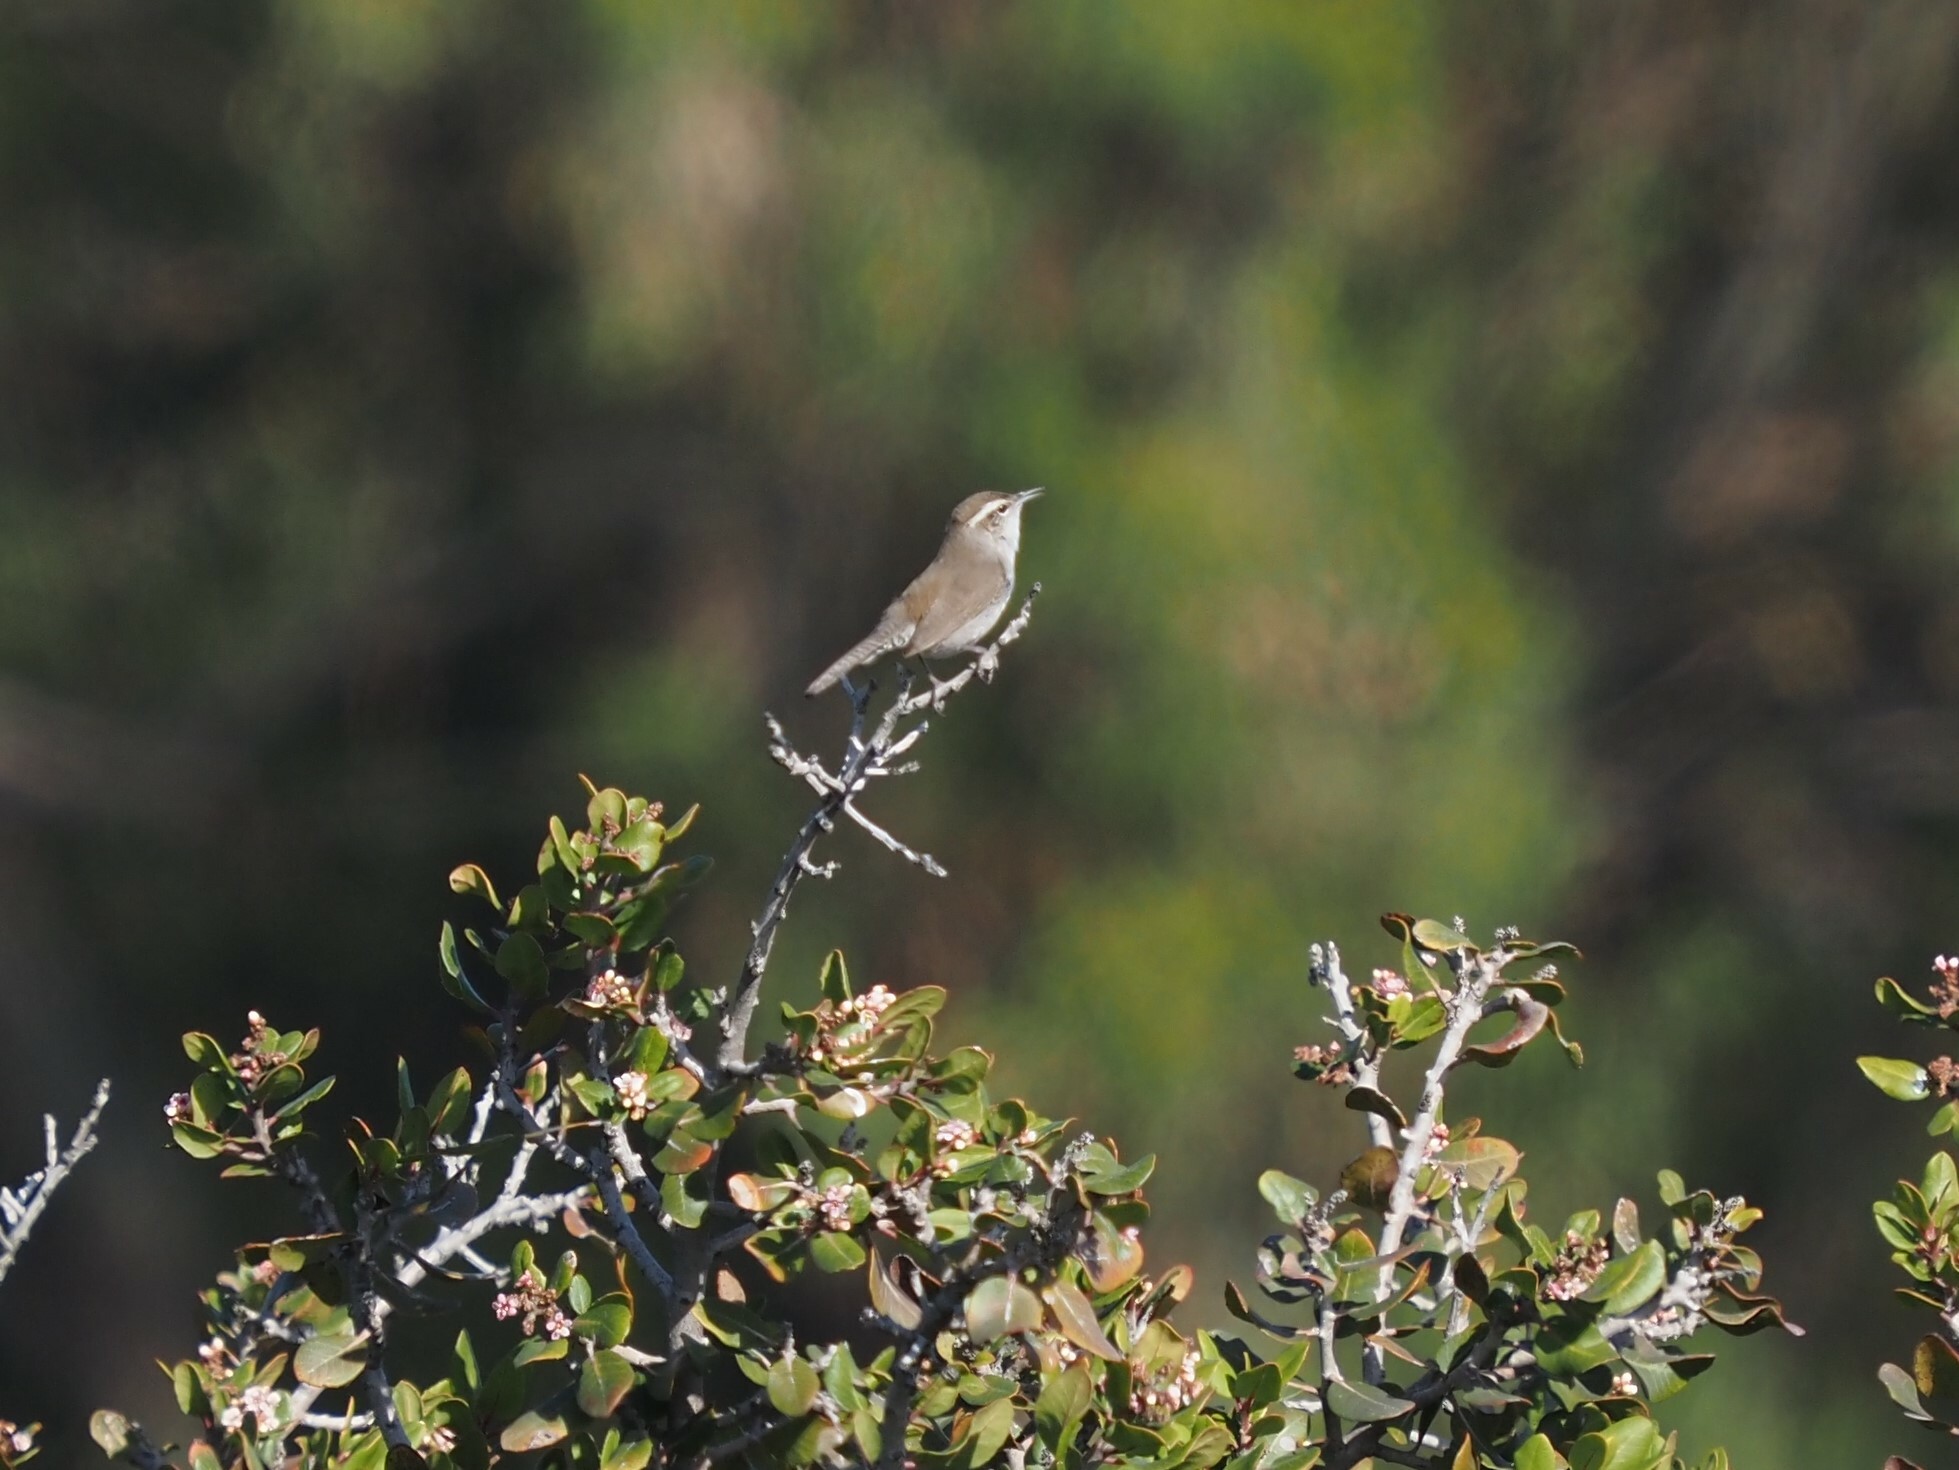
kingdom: Animalia
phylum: Chordata
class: Aves
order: Passeriformes
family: Troglodytidae
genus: Thryomanes
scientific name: Thryomanes bewickii
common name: Bewick's wren
